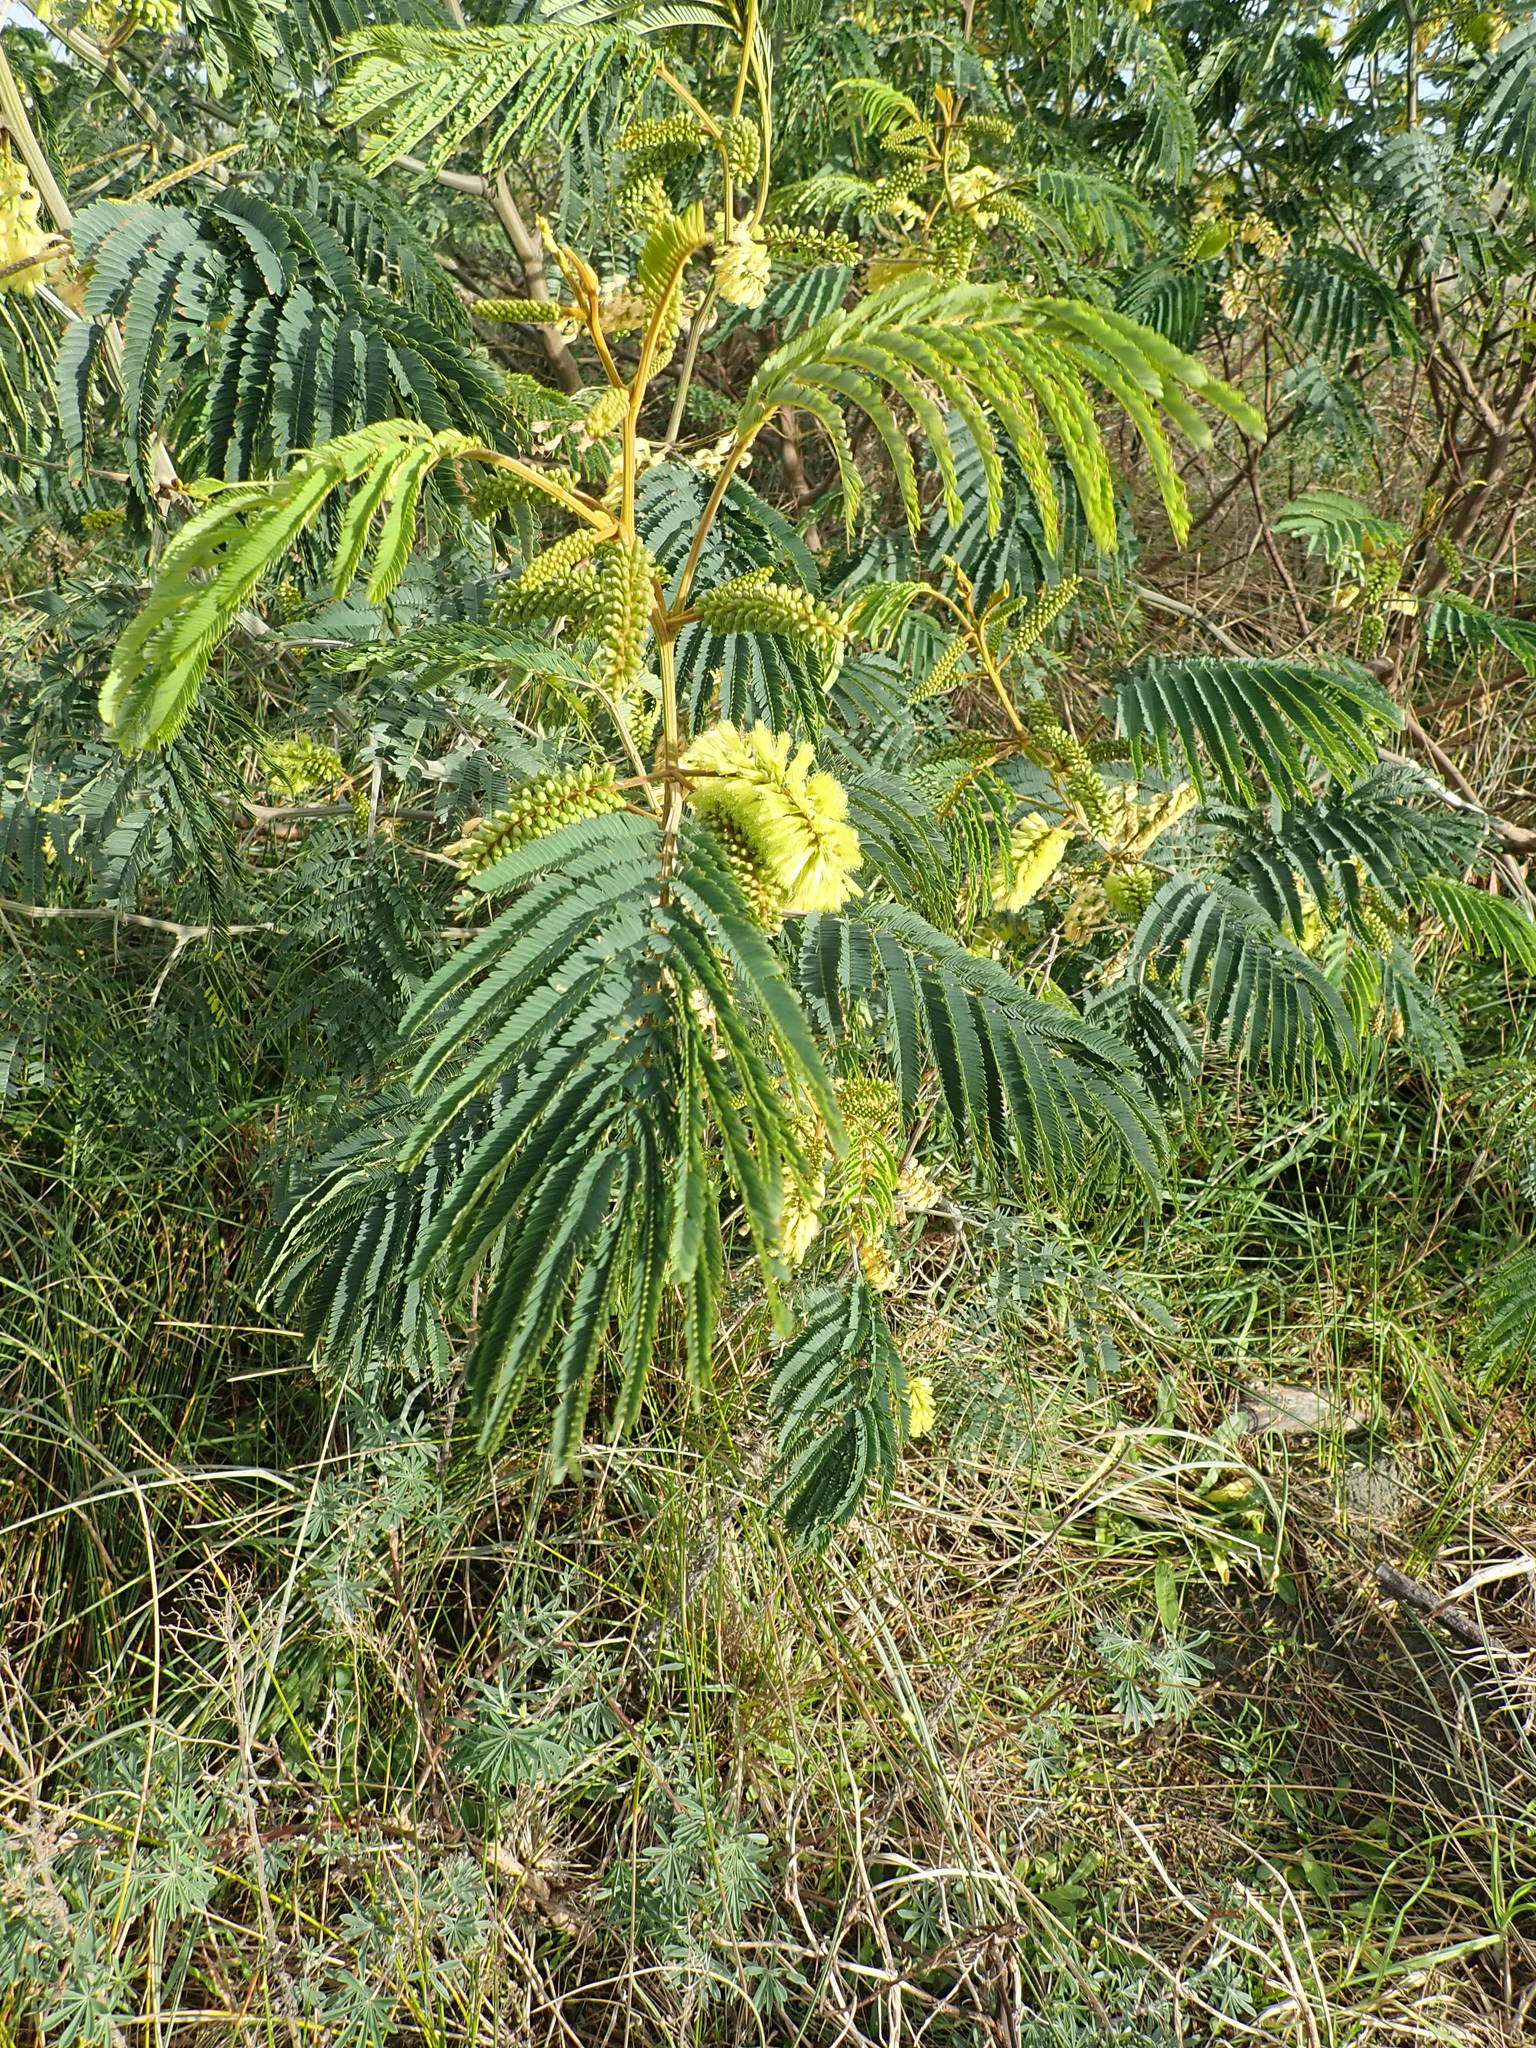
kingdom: Plantae
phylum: Tracheophyta
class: Magnoliopsida
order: Fabales
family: Fabaceae
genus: Paraserianthes
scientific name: Paraserianthes lophantha
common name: Plume albizia
